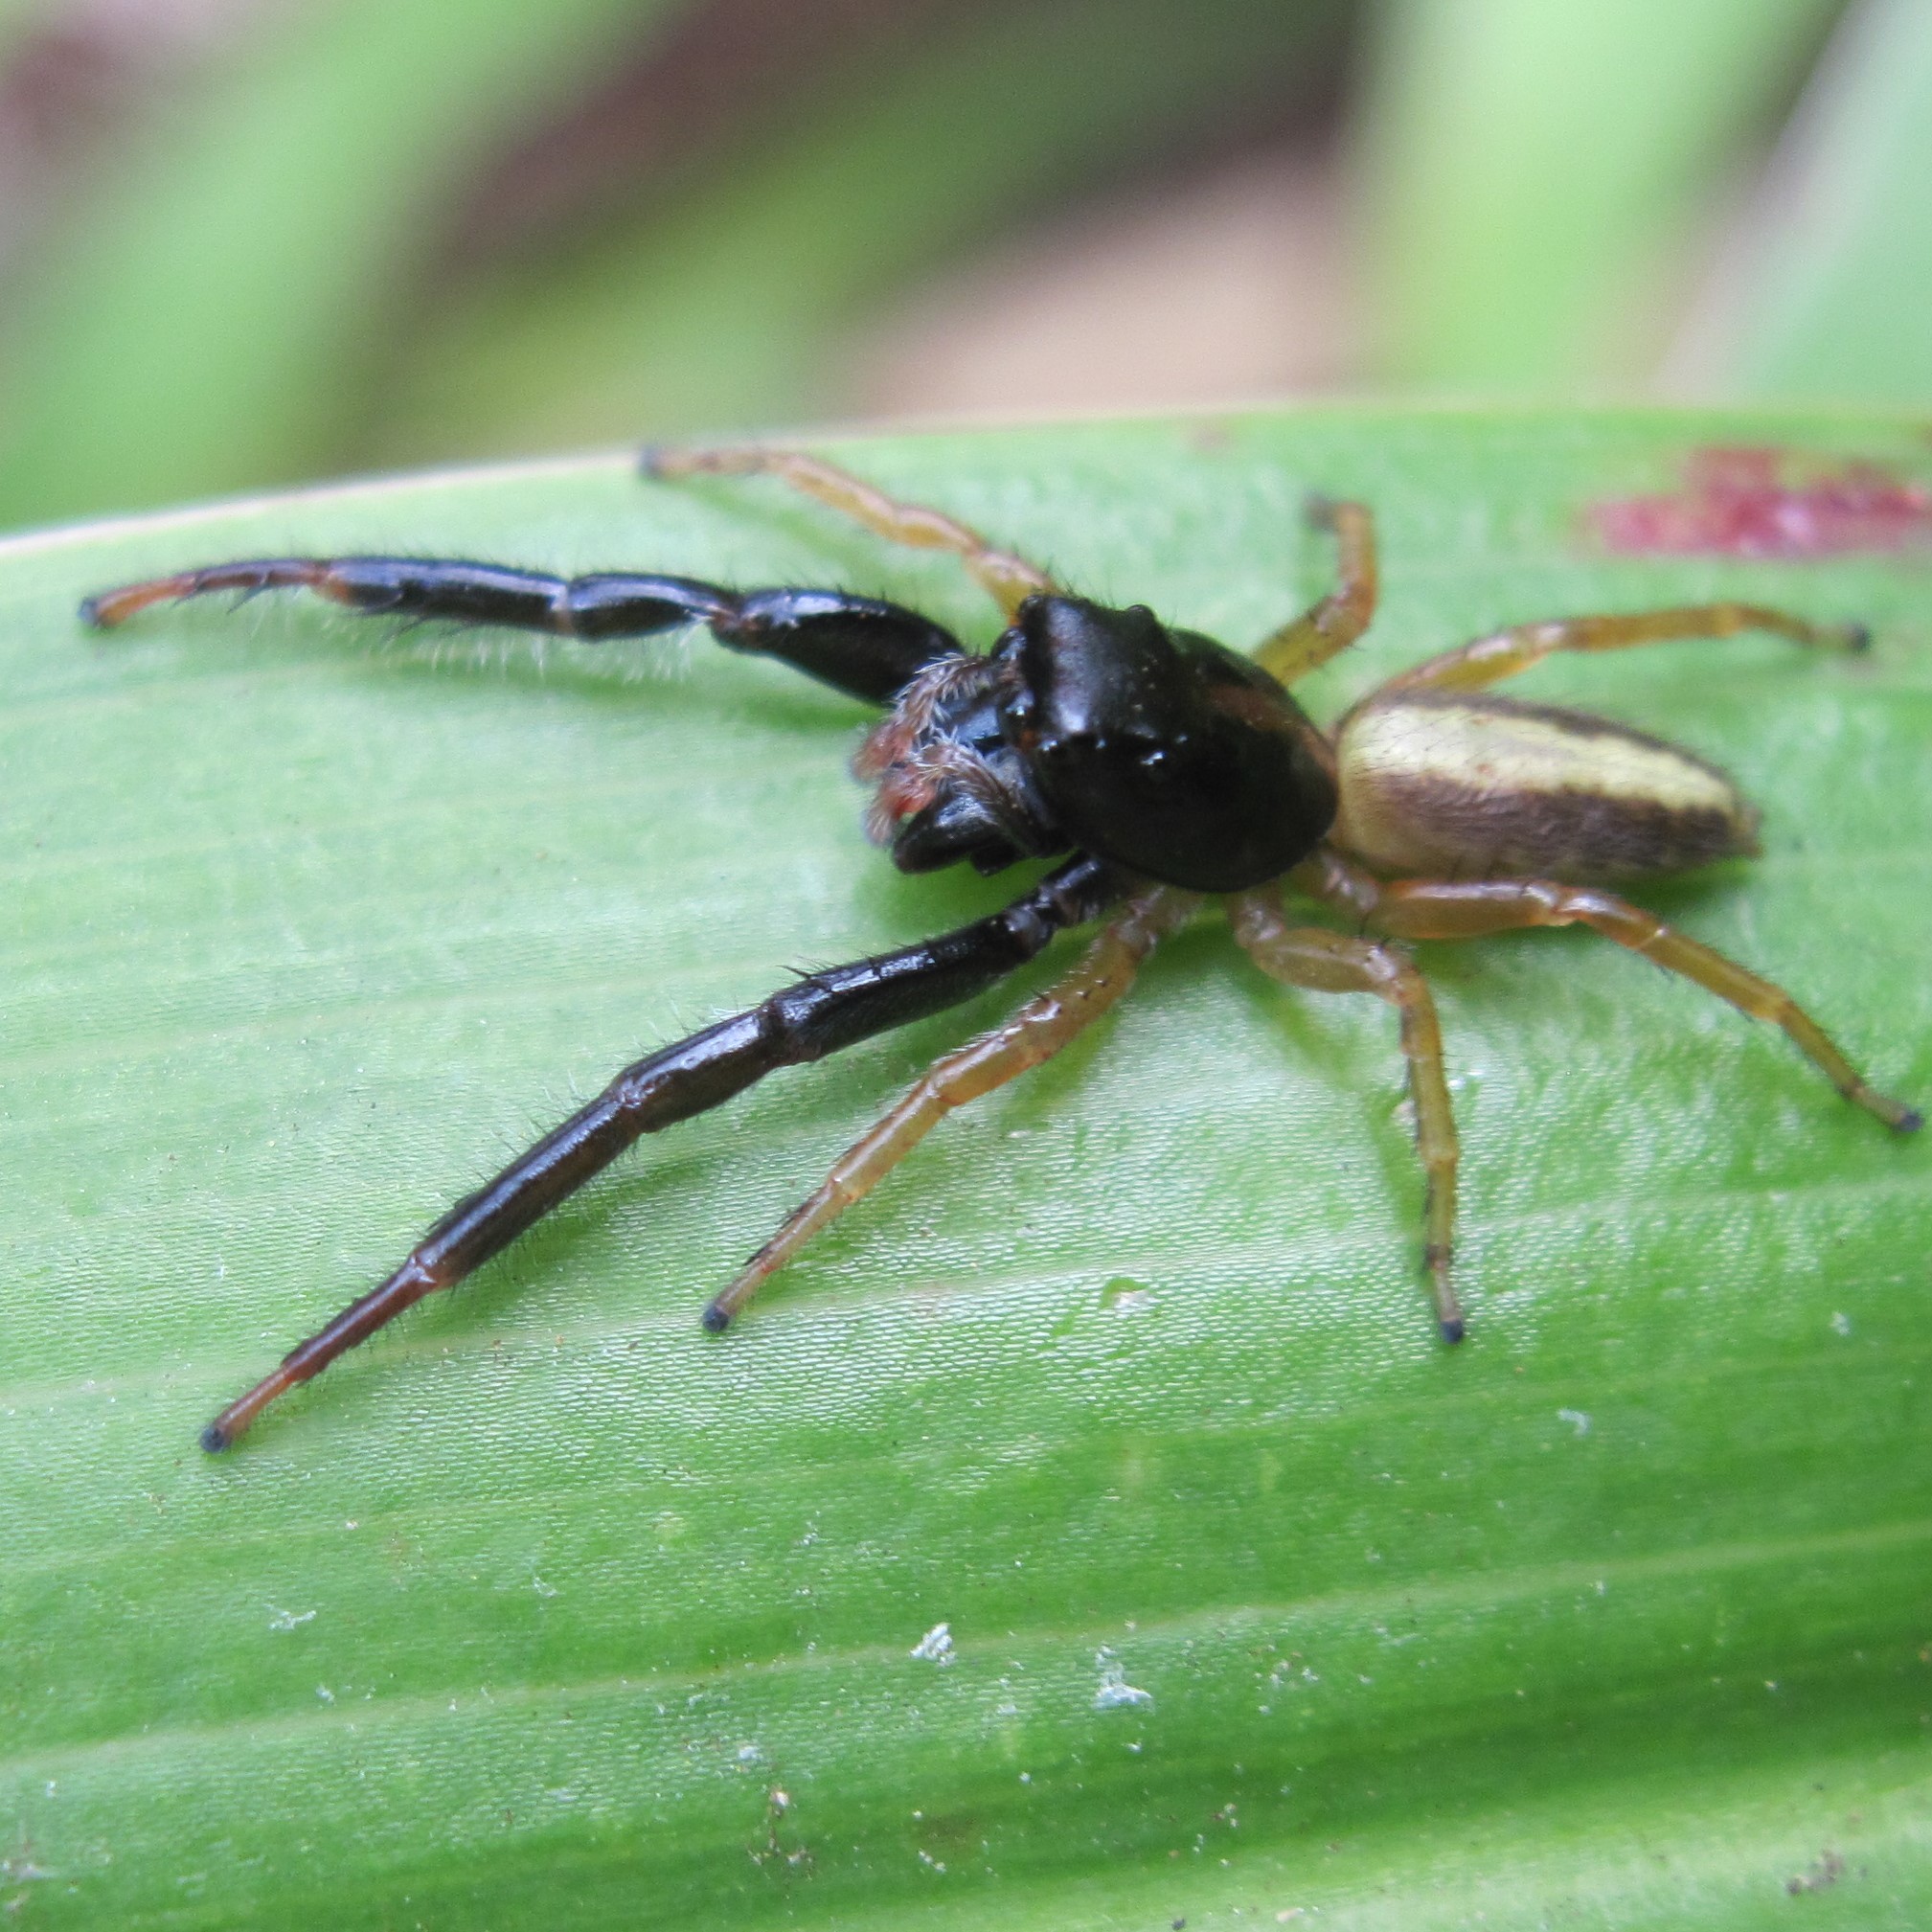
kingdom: Animalia
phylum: Arthropoda
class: Arachnida
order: Araneae
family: Salticidae
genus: Trite
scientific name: Trite planiceps
